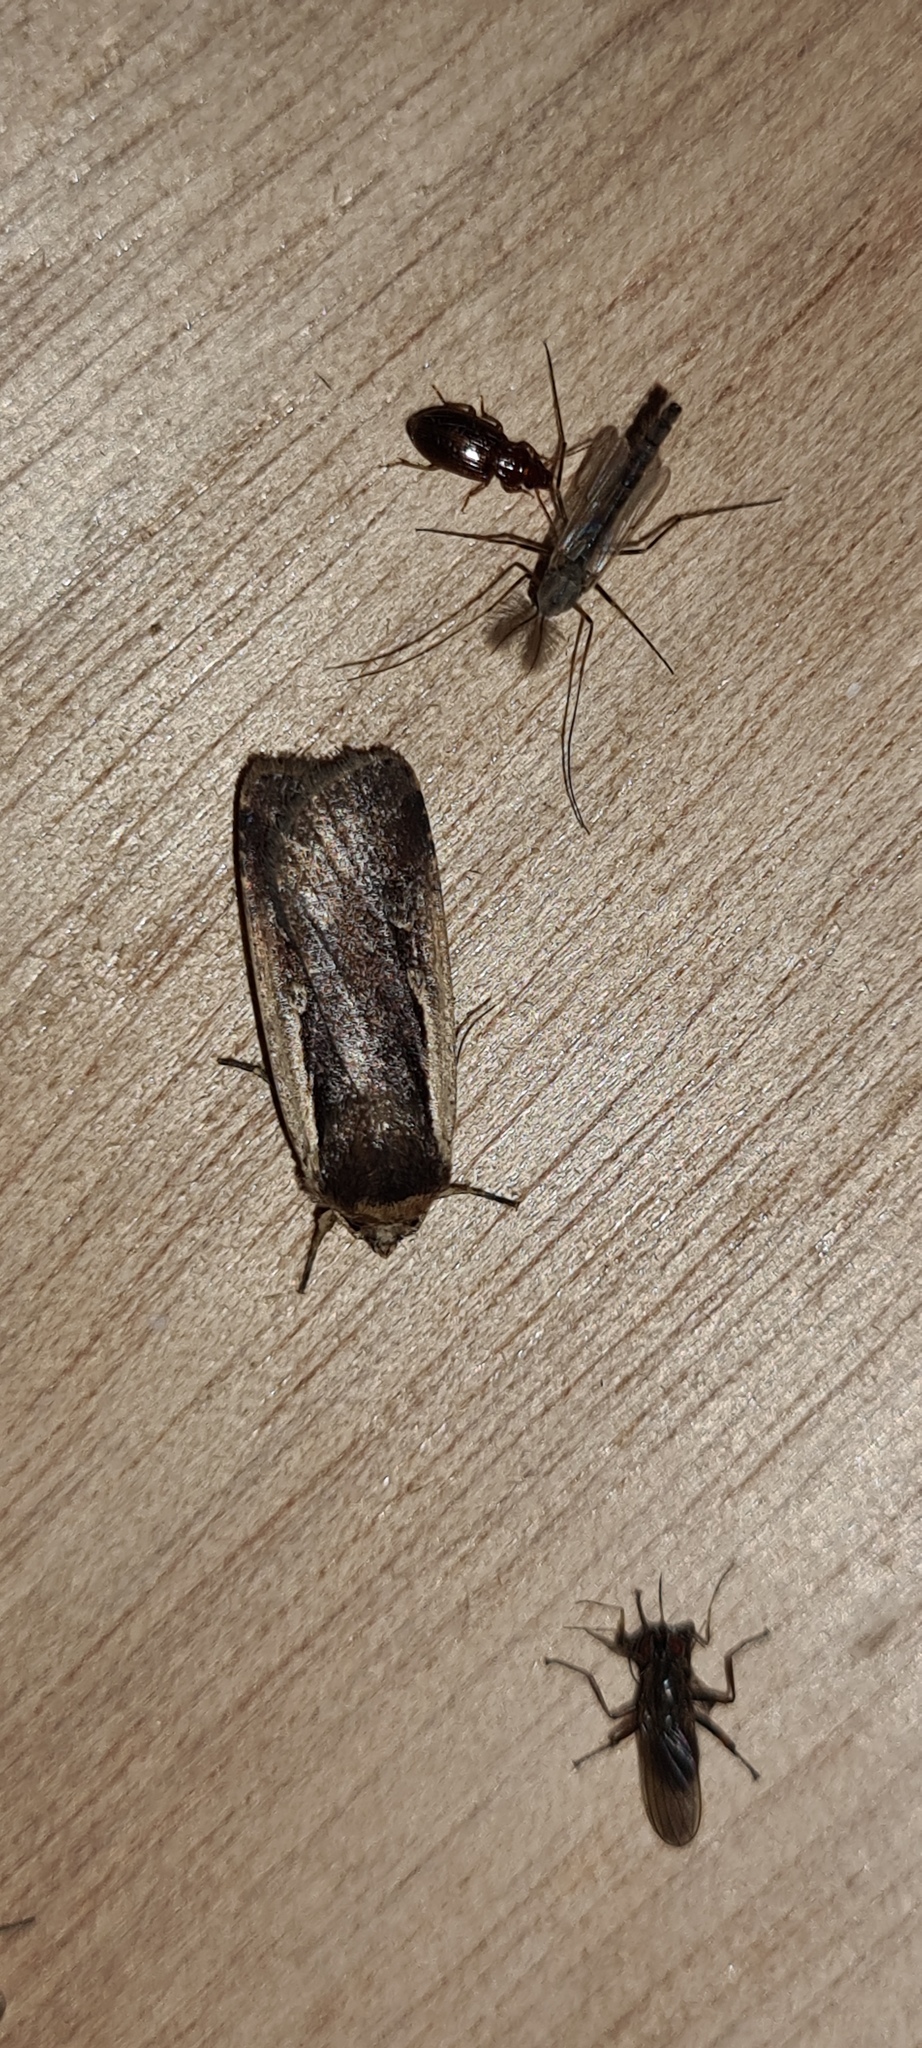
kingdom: Animalia
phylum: Arthropoda
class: Insecta
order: Lepidoptera
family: Noctuidae
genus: Ochropleura
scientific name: Ochropleura plecta
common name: Flame shoulder
